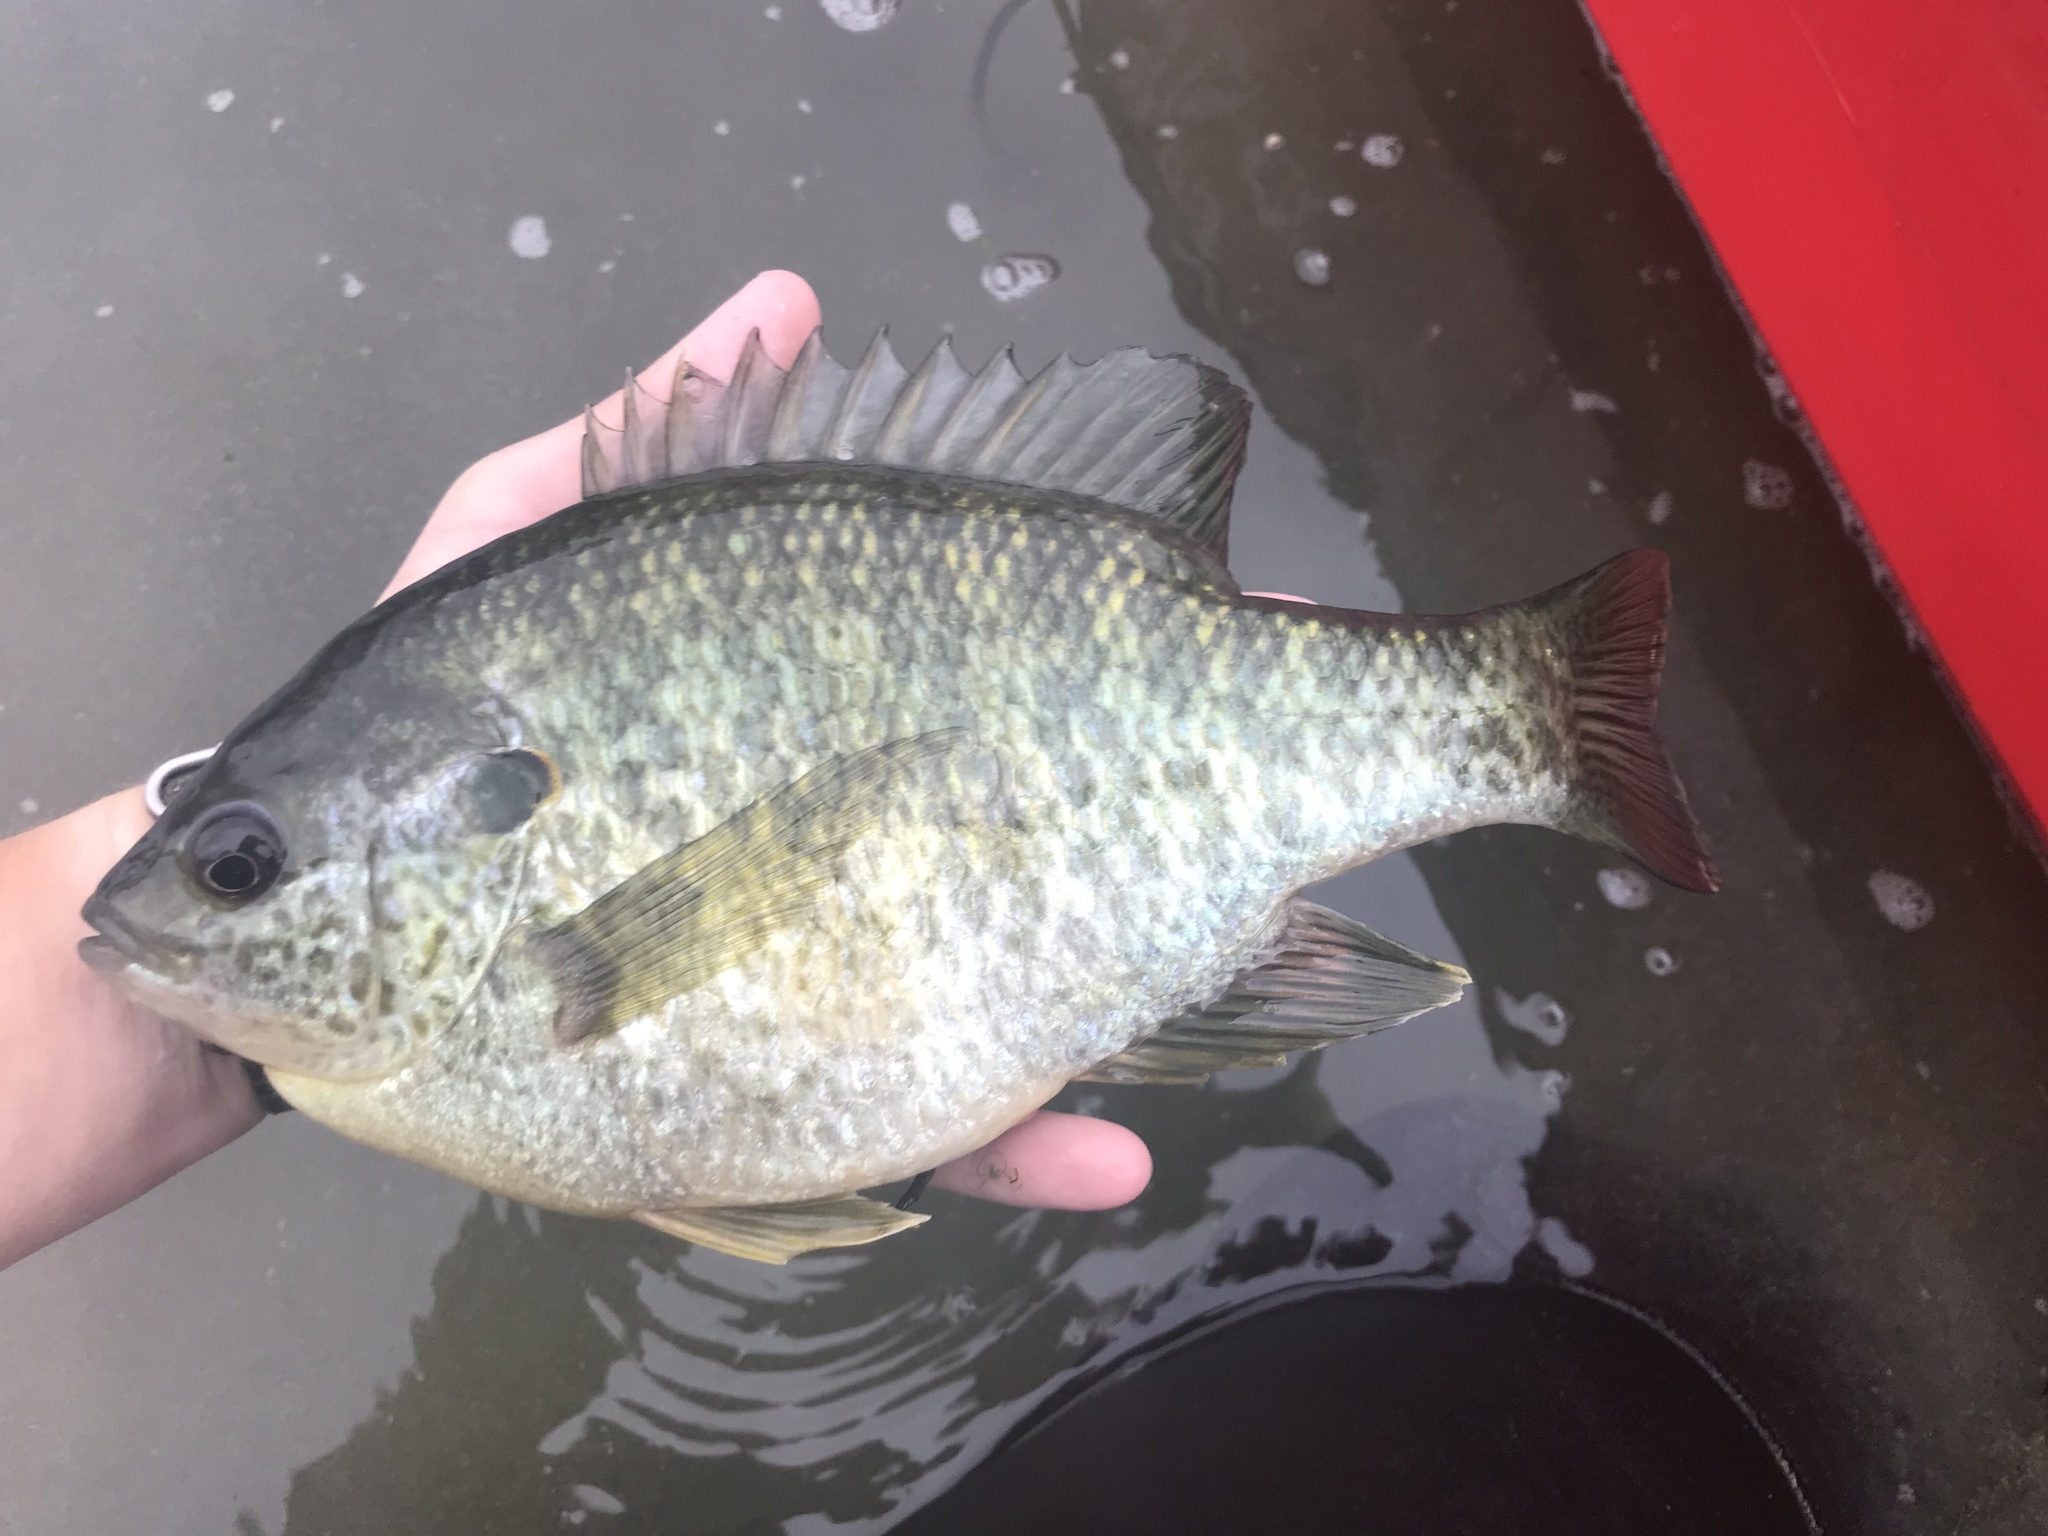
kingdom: Animalia
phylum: Chordata
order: Perciformes
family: Centrarchidae
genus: Lepomis
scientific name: Lepomis microlophus
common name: Redear sunfish
